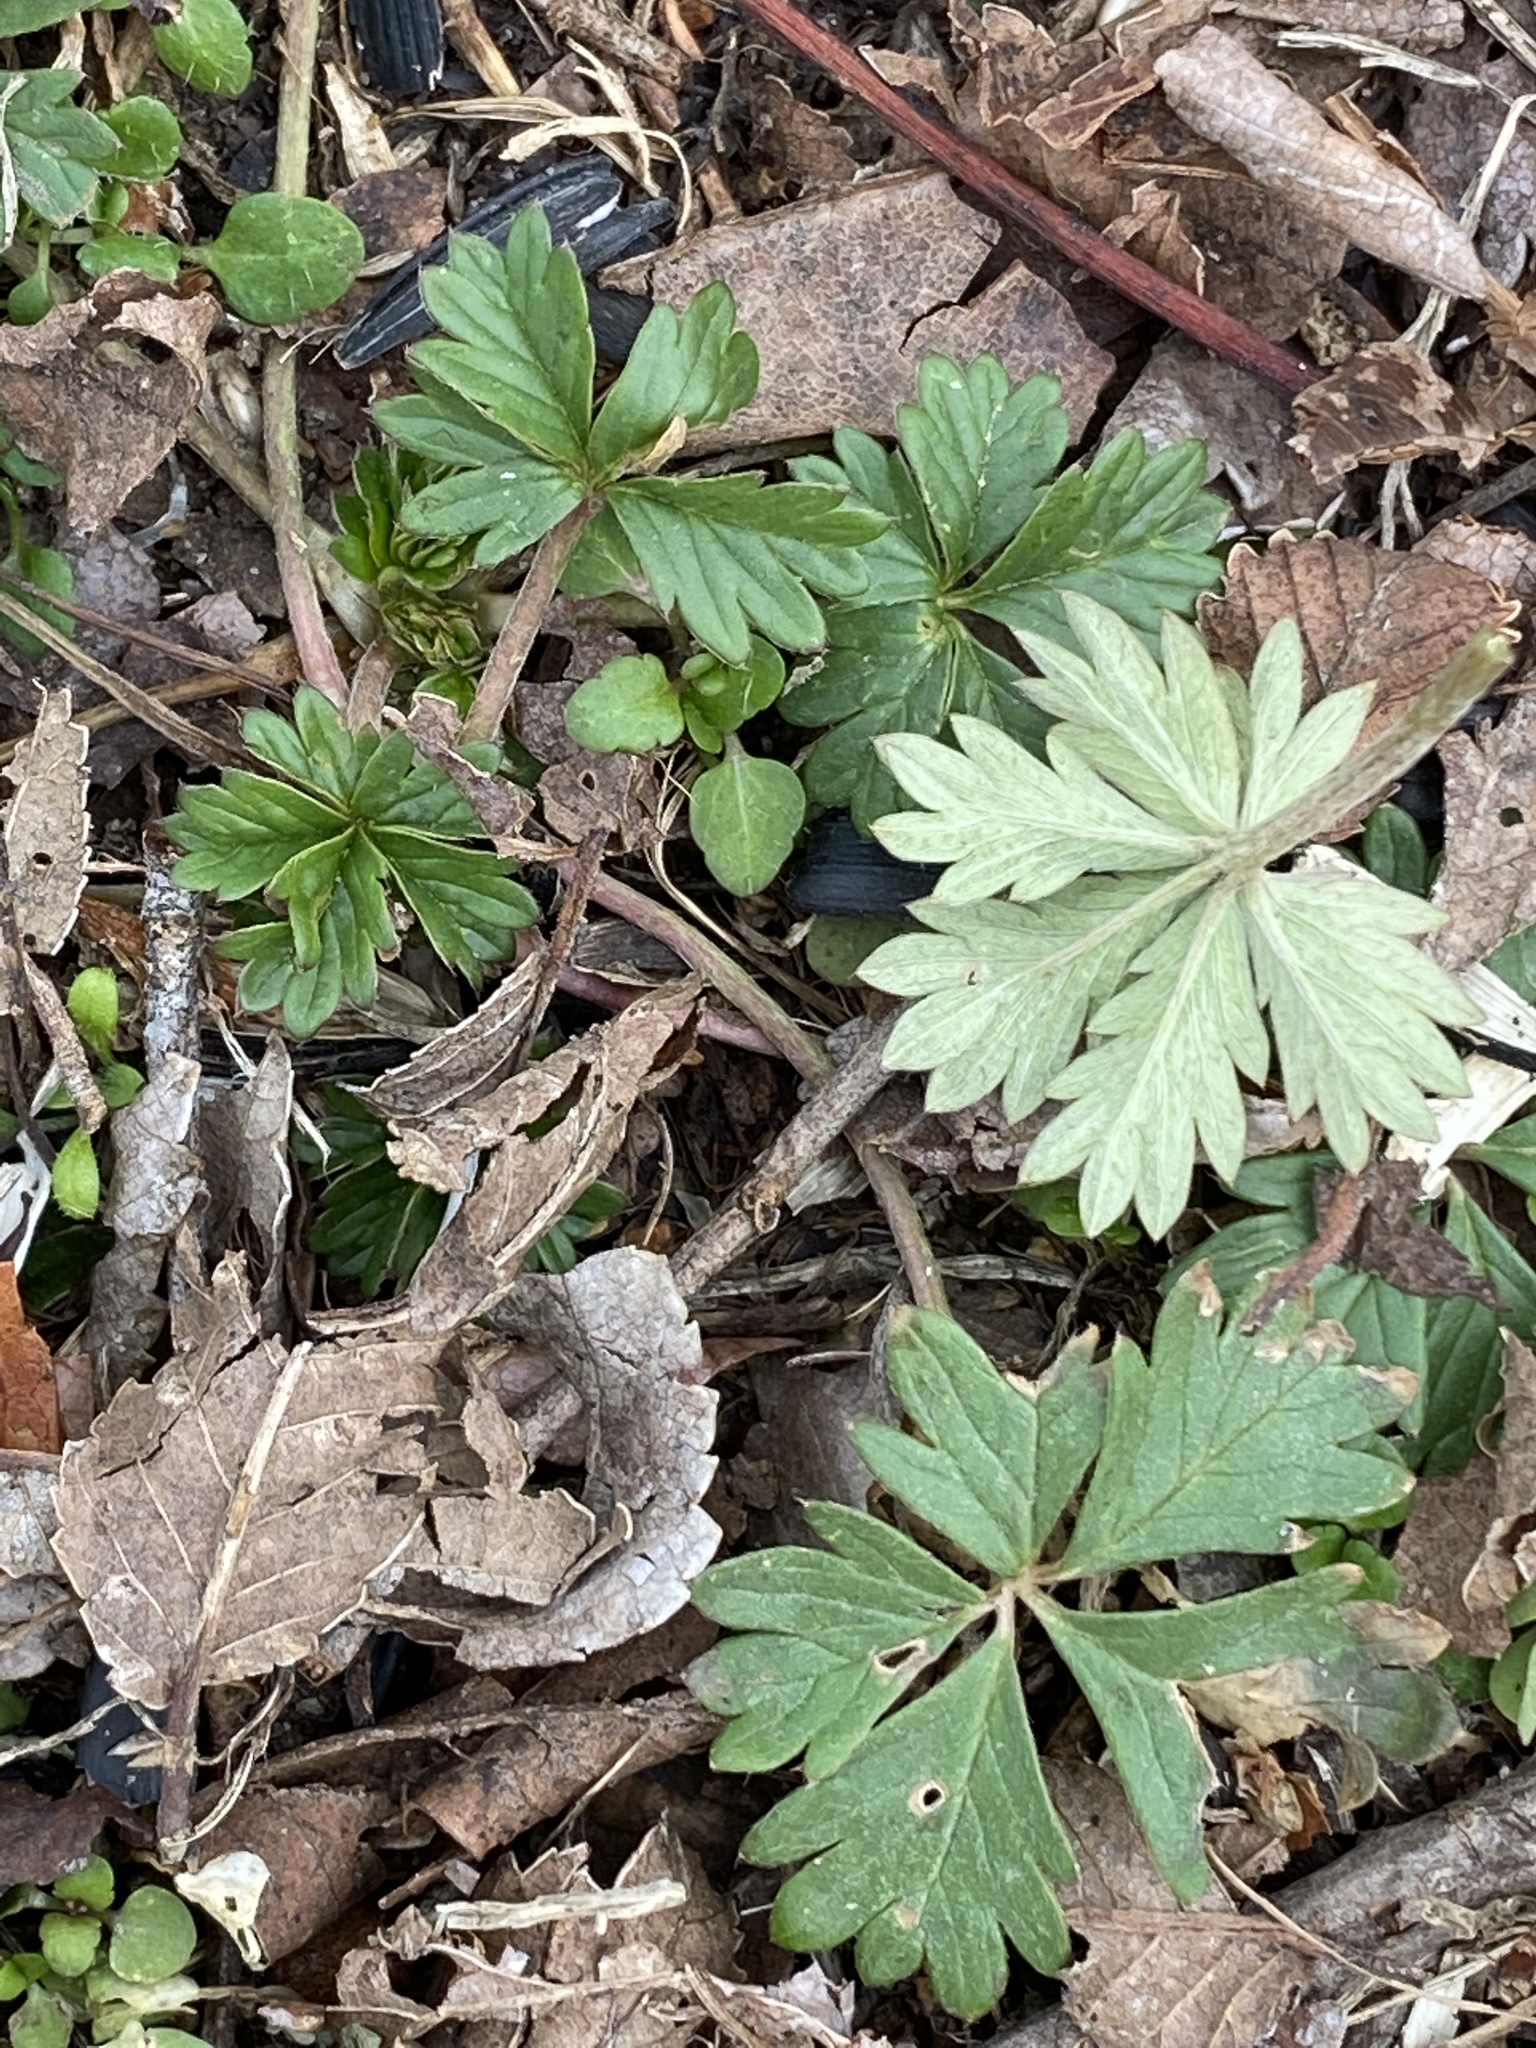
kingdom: Plantae
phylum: Tracheophyta
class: Magnoliopsida
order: Rosales
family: Rosaceae
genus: Potentilla
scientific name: Potentilla argentea
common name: Hoary cinquefoil
